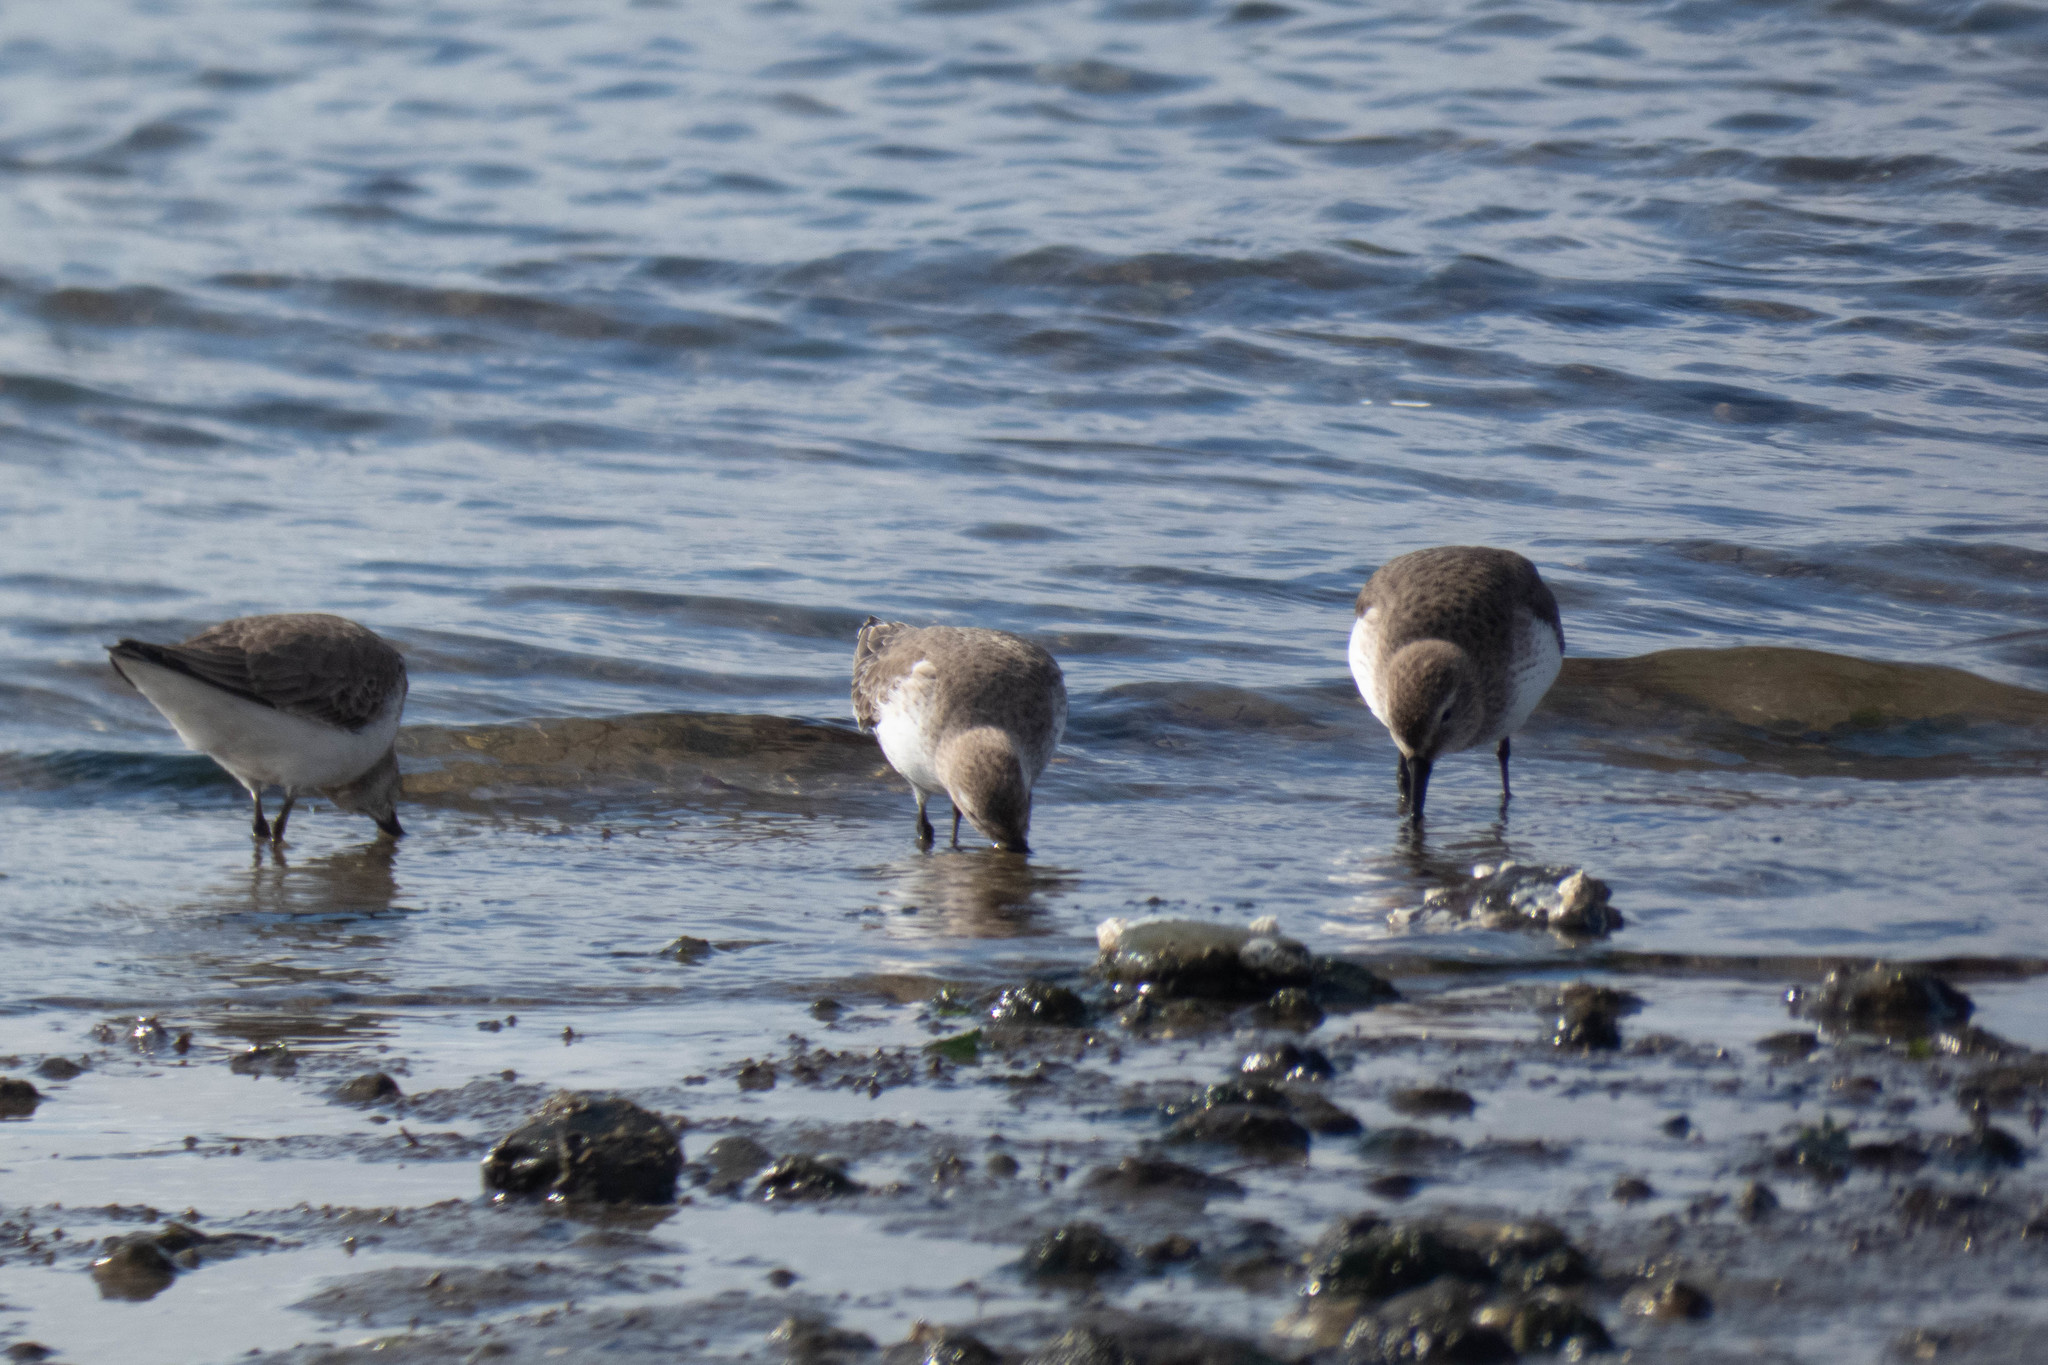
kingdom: Animalia
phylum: Chordata
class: Aves
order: Charadriiformes
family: Scolopacidae
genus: Calidris
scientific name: Calidris alpina
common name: Dunlin
